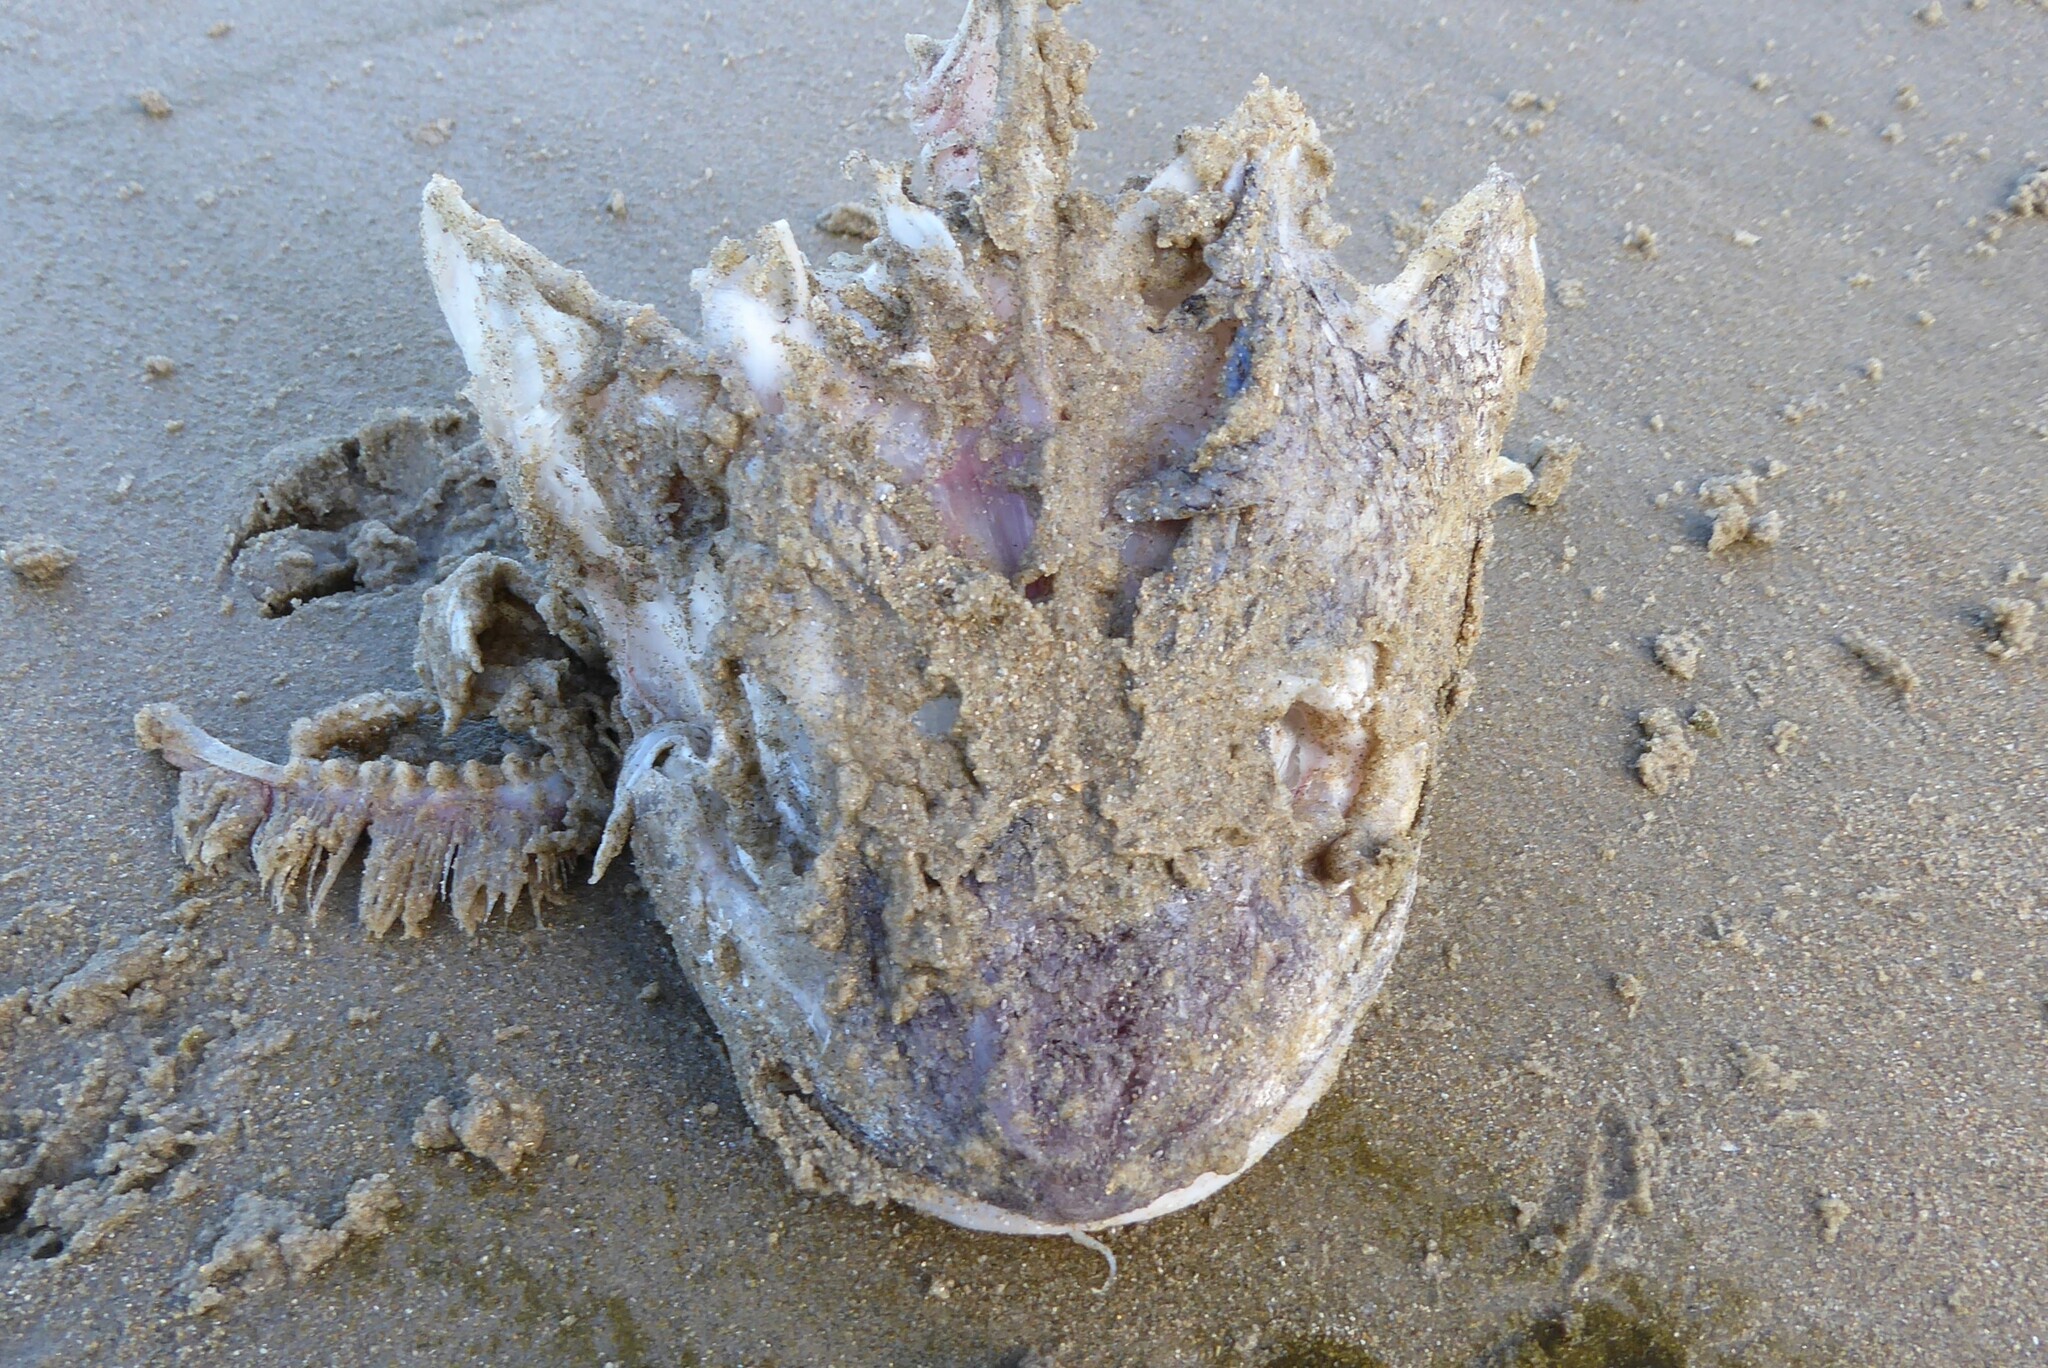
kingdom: Animalia
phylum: Chordata
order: Gadiformes
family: Moridae
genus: Pseudophycis
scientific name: Pseudophycis bachus
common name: Red cod
